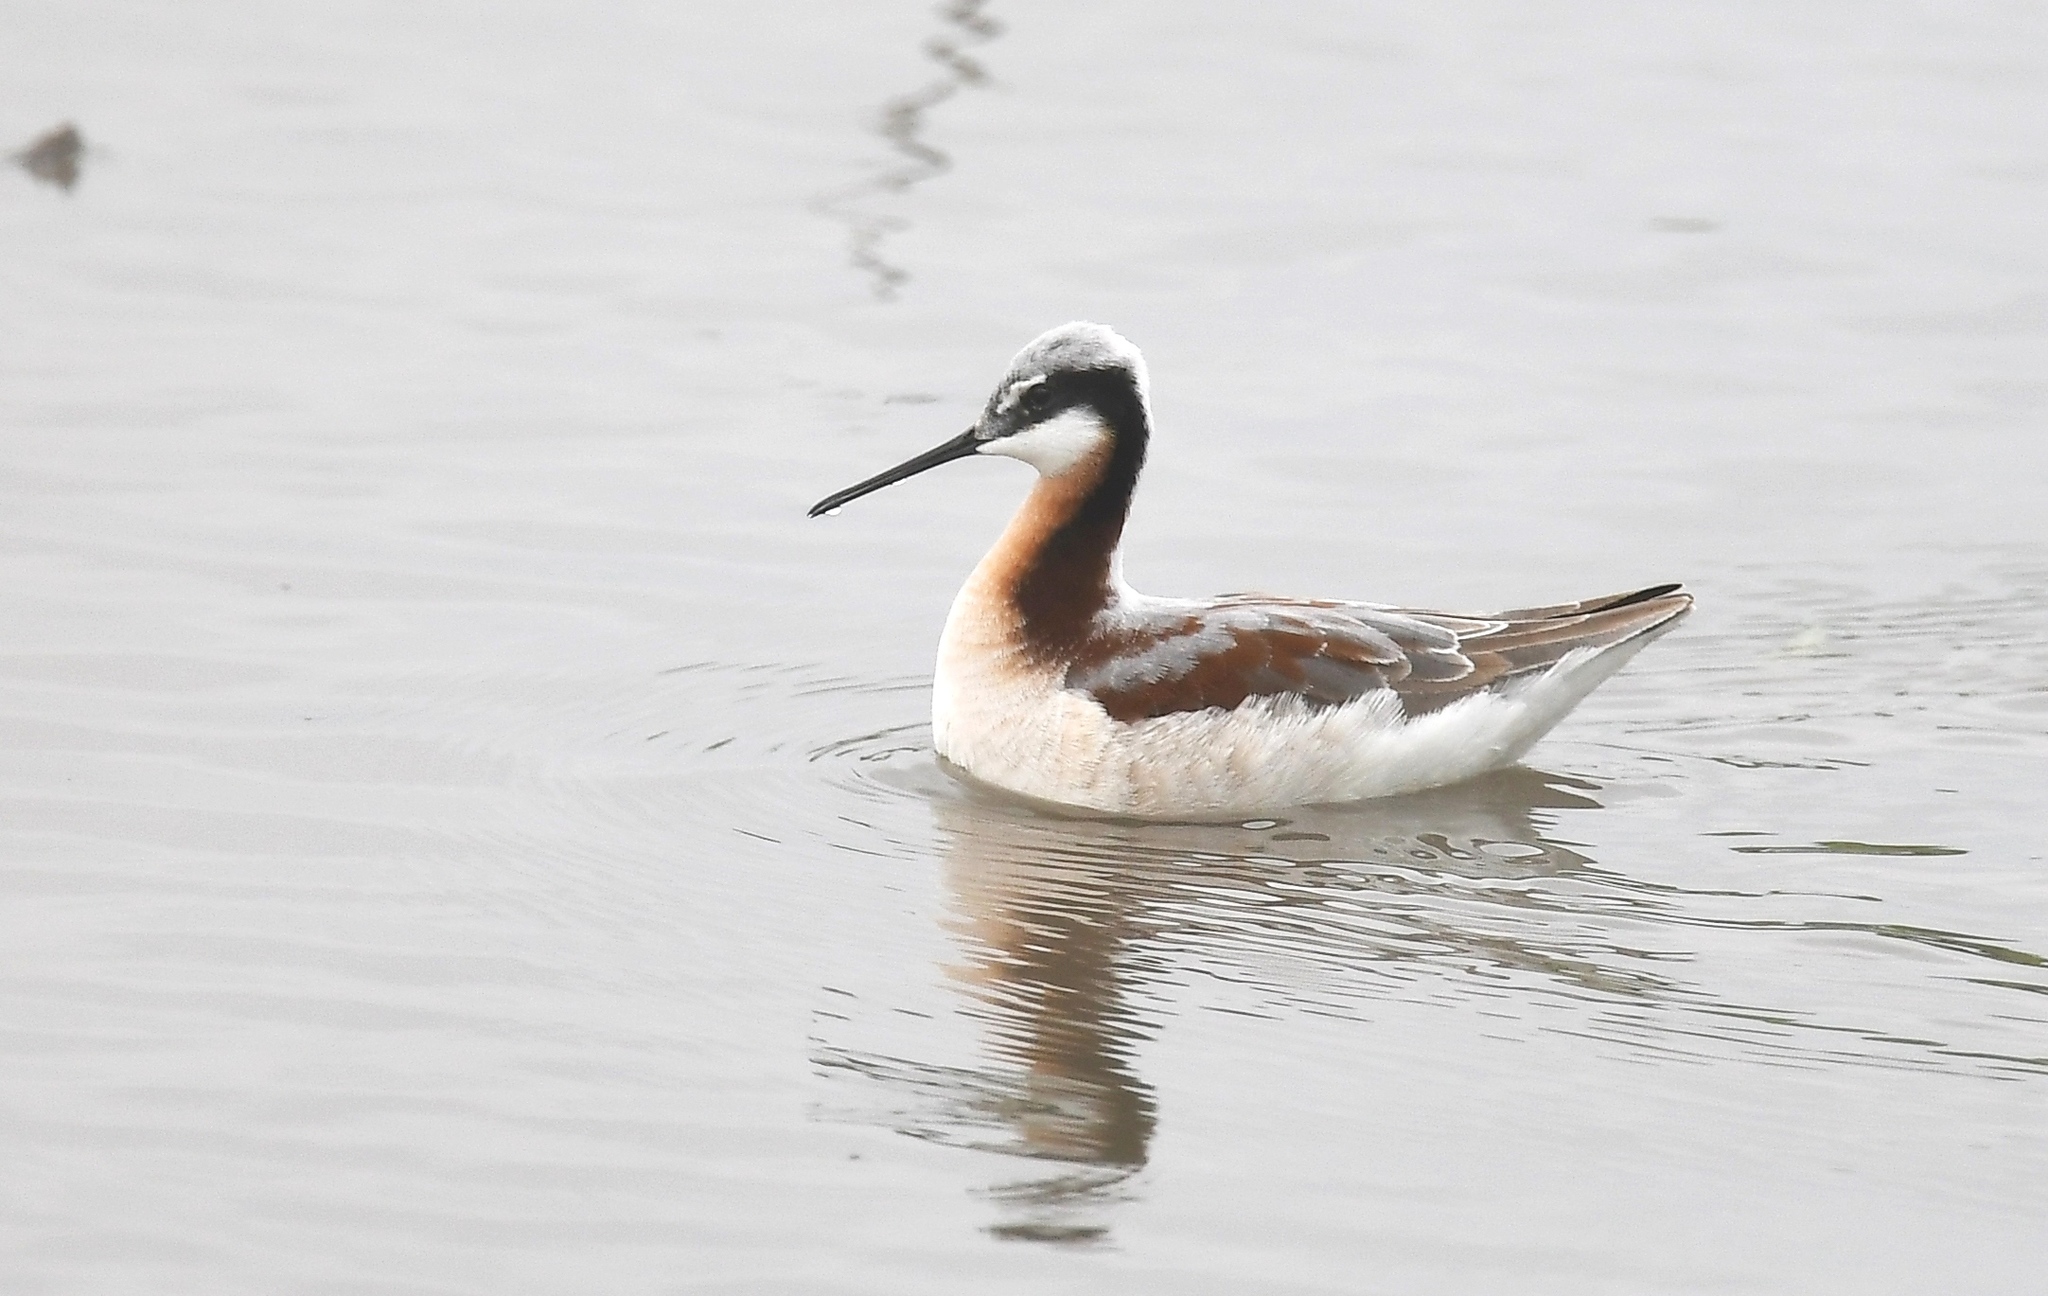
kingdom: Animalia
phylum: Chordata
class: Aves
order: Charadriiformes
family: Scolopacidae
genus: Phalaropus
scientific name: Phalaropus tricolor
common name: Wilson's phalarope
